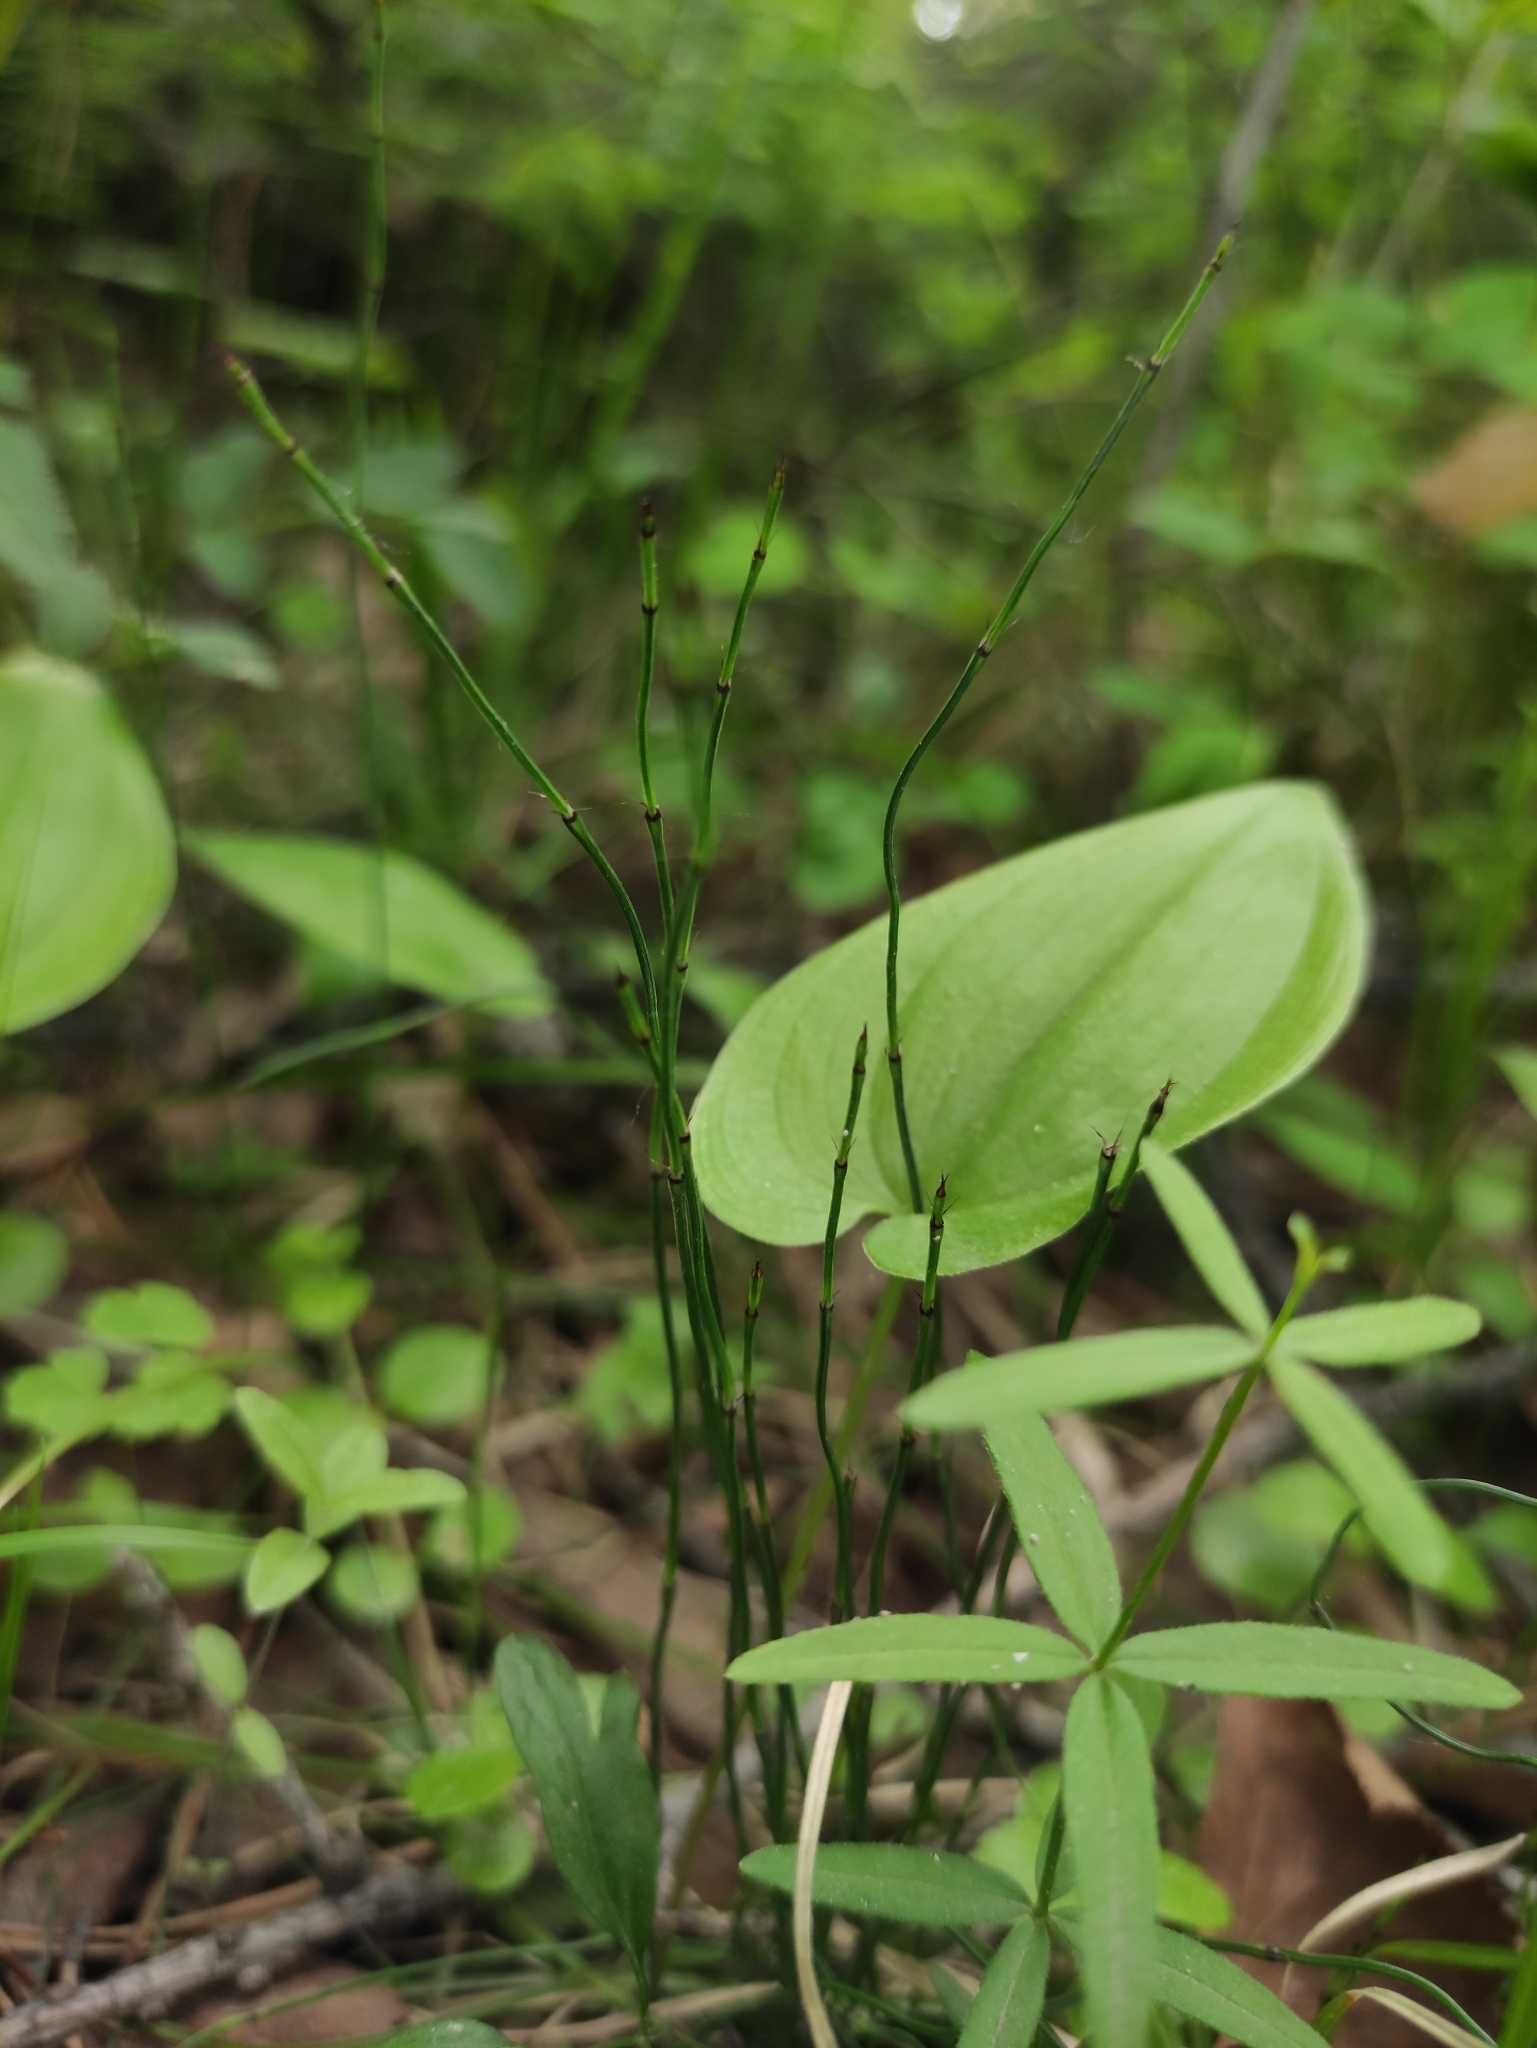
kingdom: Plantae
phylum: Tracheophyta
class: Polypodiopsida
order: Equisetales
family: Equisetaceae
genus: Equisetum
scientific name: Equisetum scirpoides
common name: Delicate horsetail
